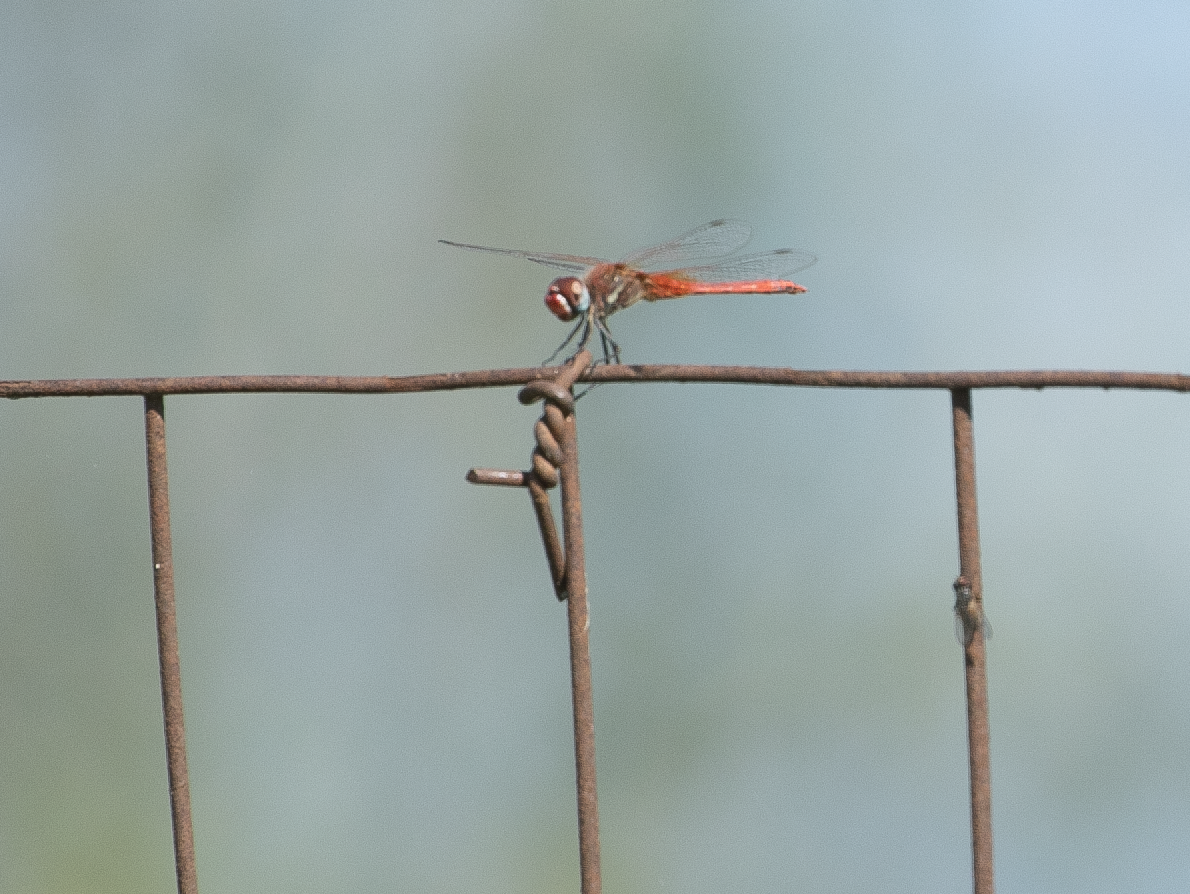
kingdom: Animalia
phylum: Arthropoda
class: Insecta
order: Odonata
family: Libellulidae
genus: Sympetrum
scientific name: Sympetrum fonscolombii
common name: Red-veined darter
